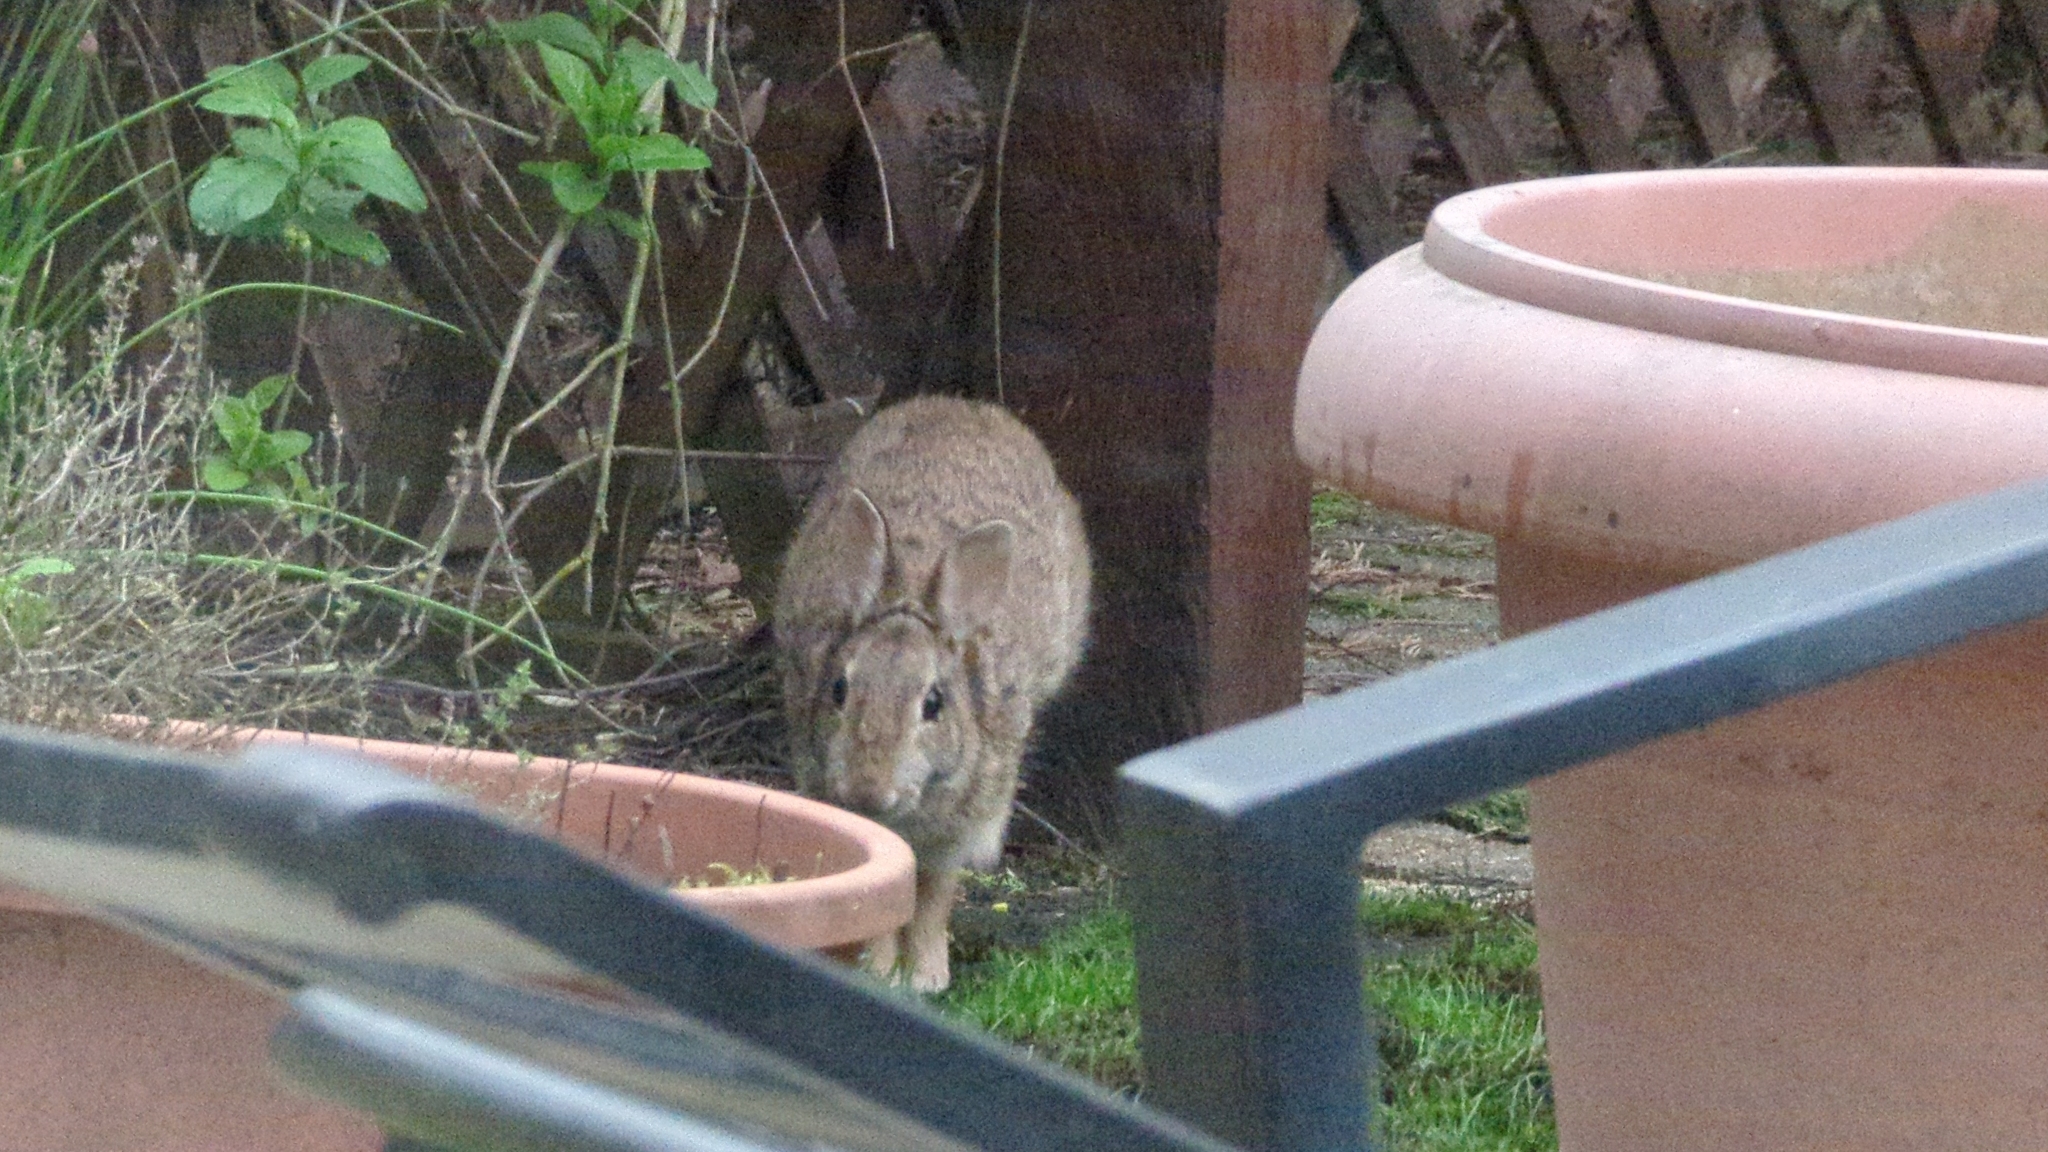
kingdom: Animalia
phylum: Chordata
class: Mammalia
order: Lagomorpha
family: Leporidae
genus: Sylvilagus
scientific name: Sylvilagus floridanus
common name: Eastern cottontail
